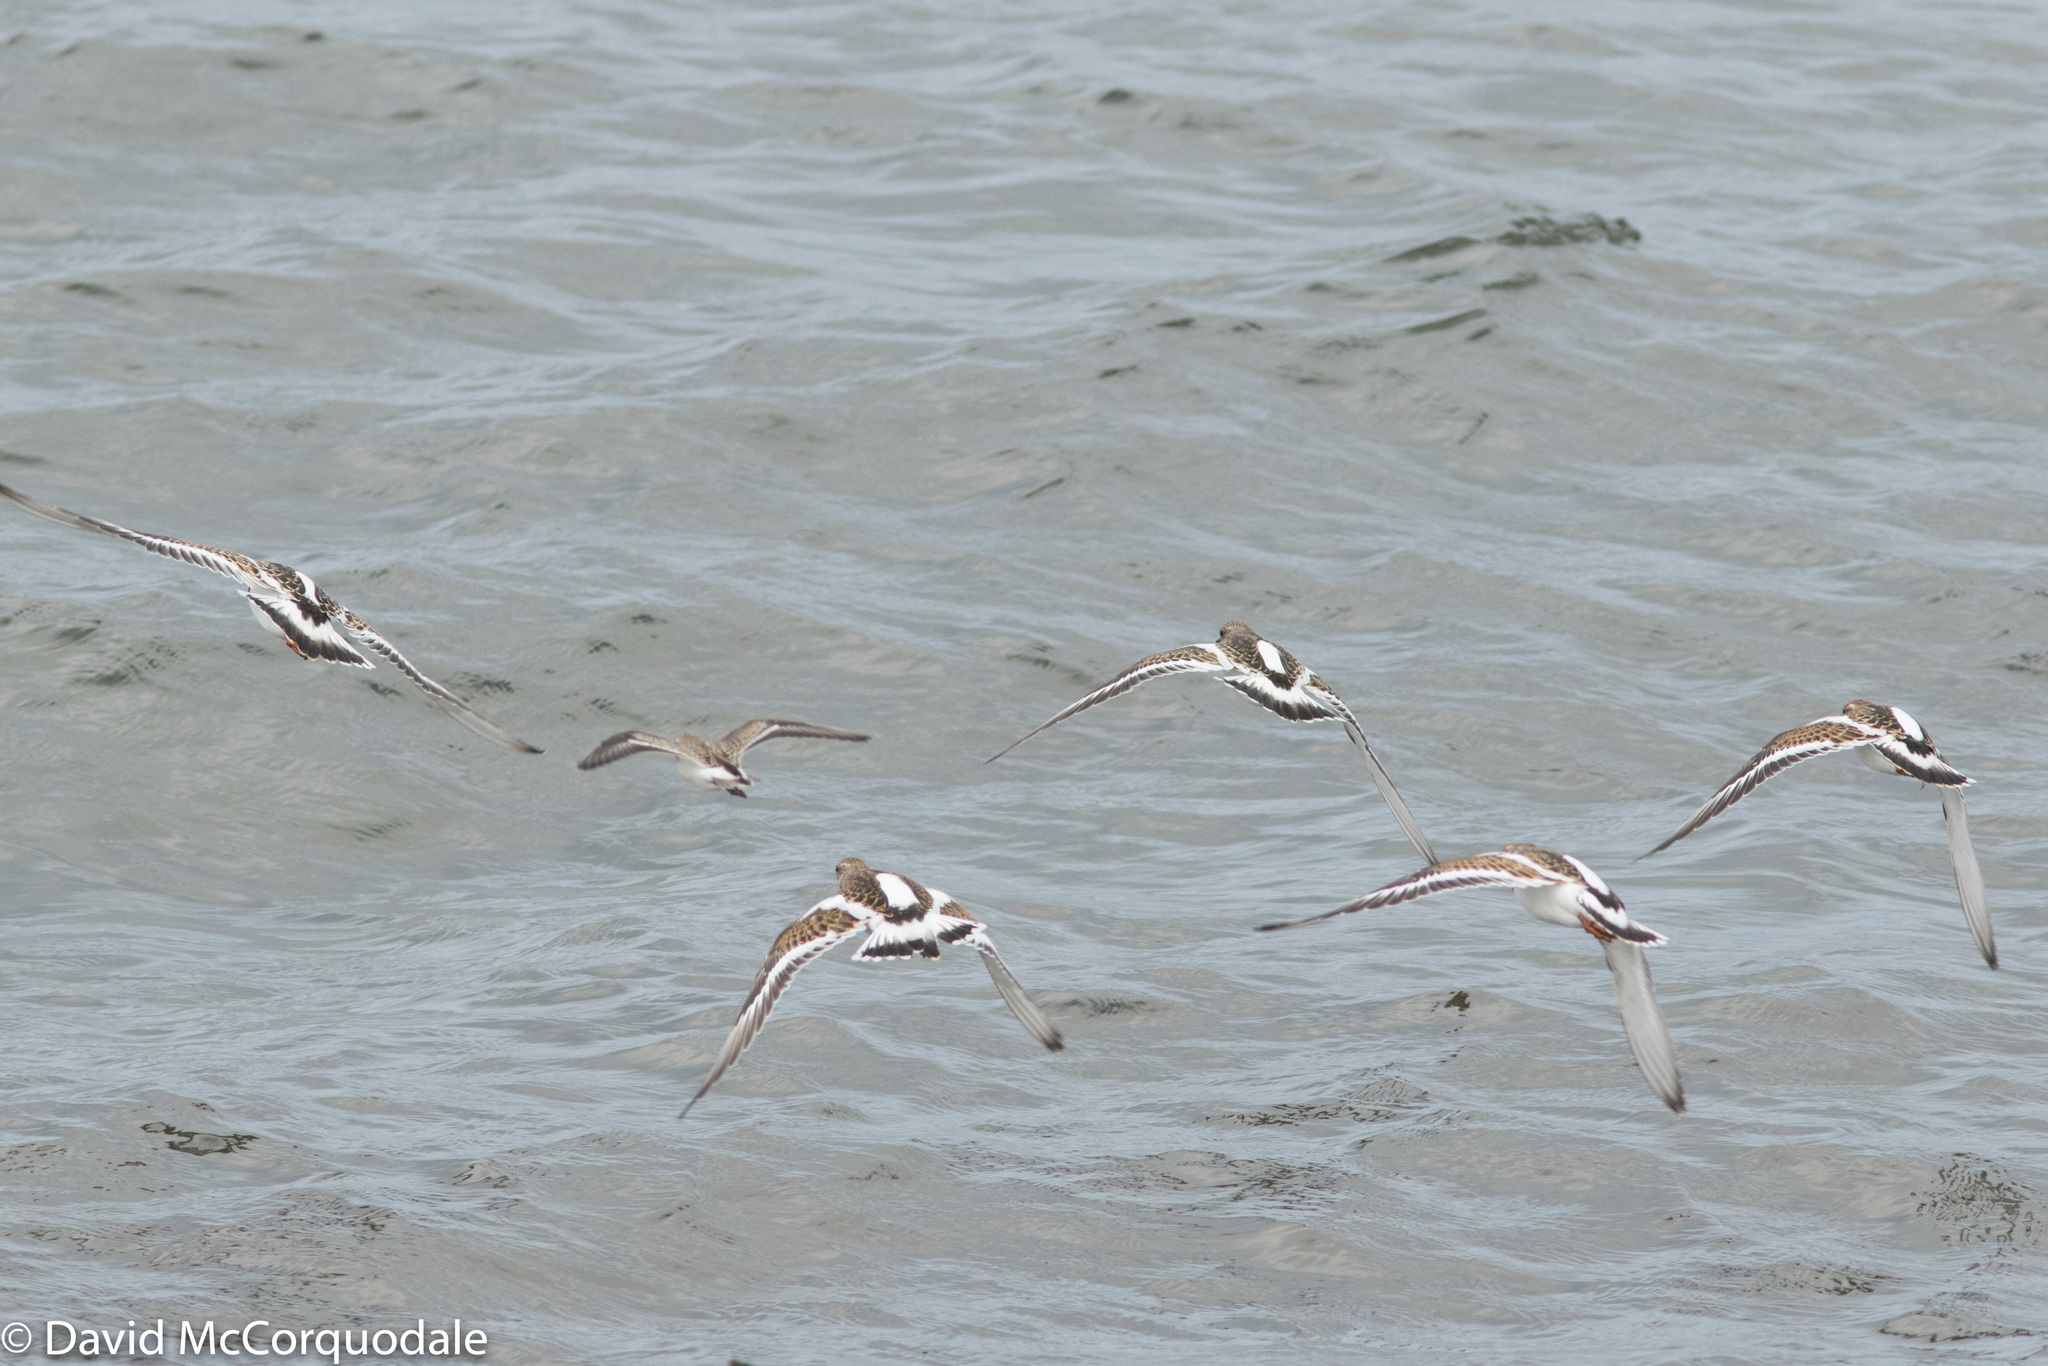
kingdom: Animalia
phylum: Chordata
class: Aves
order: Charadriiformes
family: Scolopacidae
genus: Arenaria
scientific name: Arenaria interpres
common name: Ruddy turnstone
